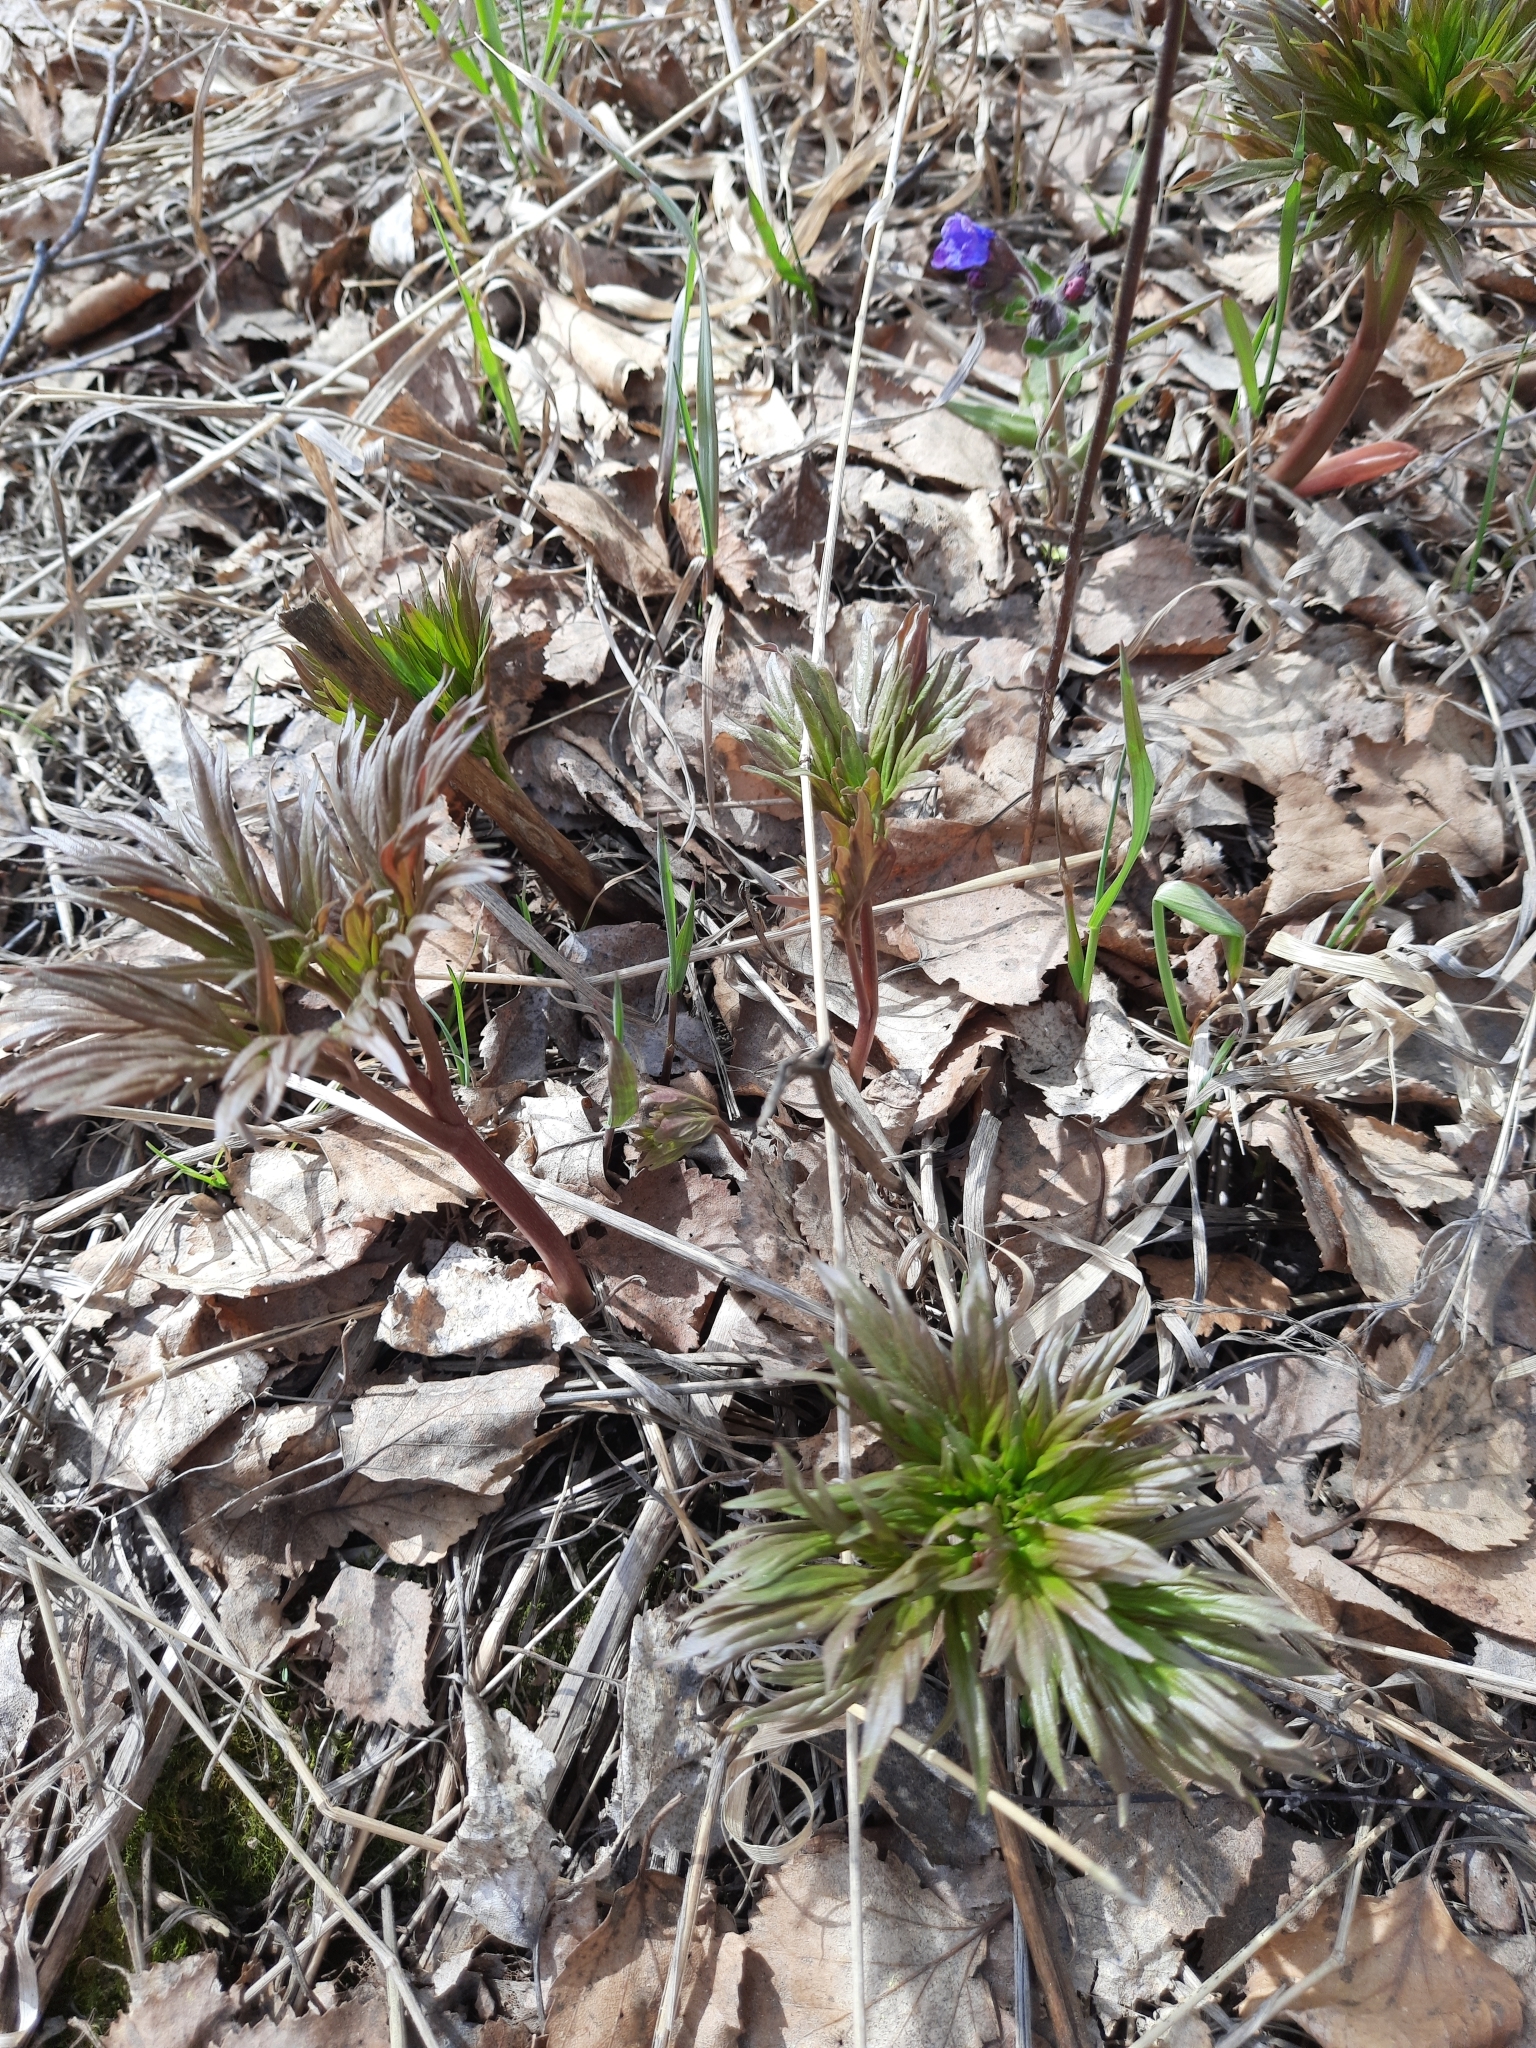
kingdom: Plantae
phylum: Tracheophyta
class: Magnoliopsida
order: Saxifragales
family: Paeoniaceae
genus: Paeonia
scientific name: Paeonia anomala
